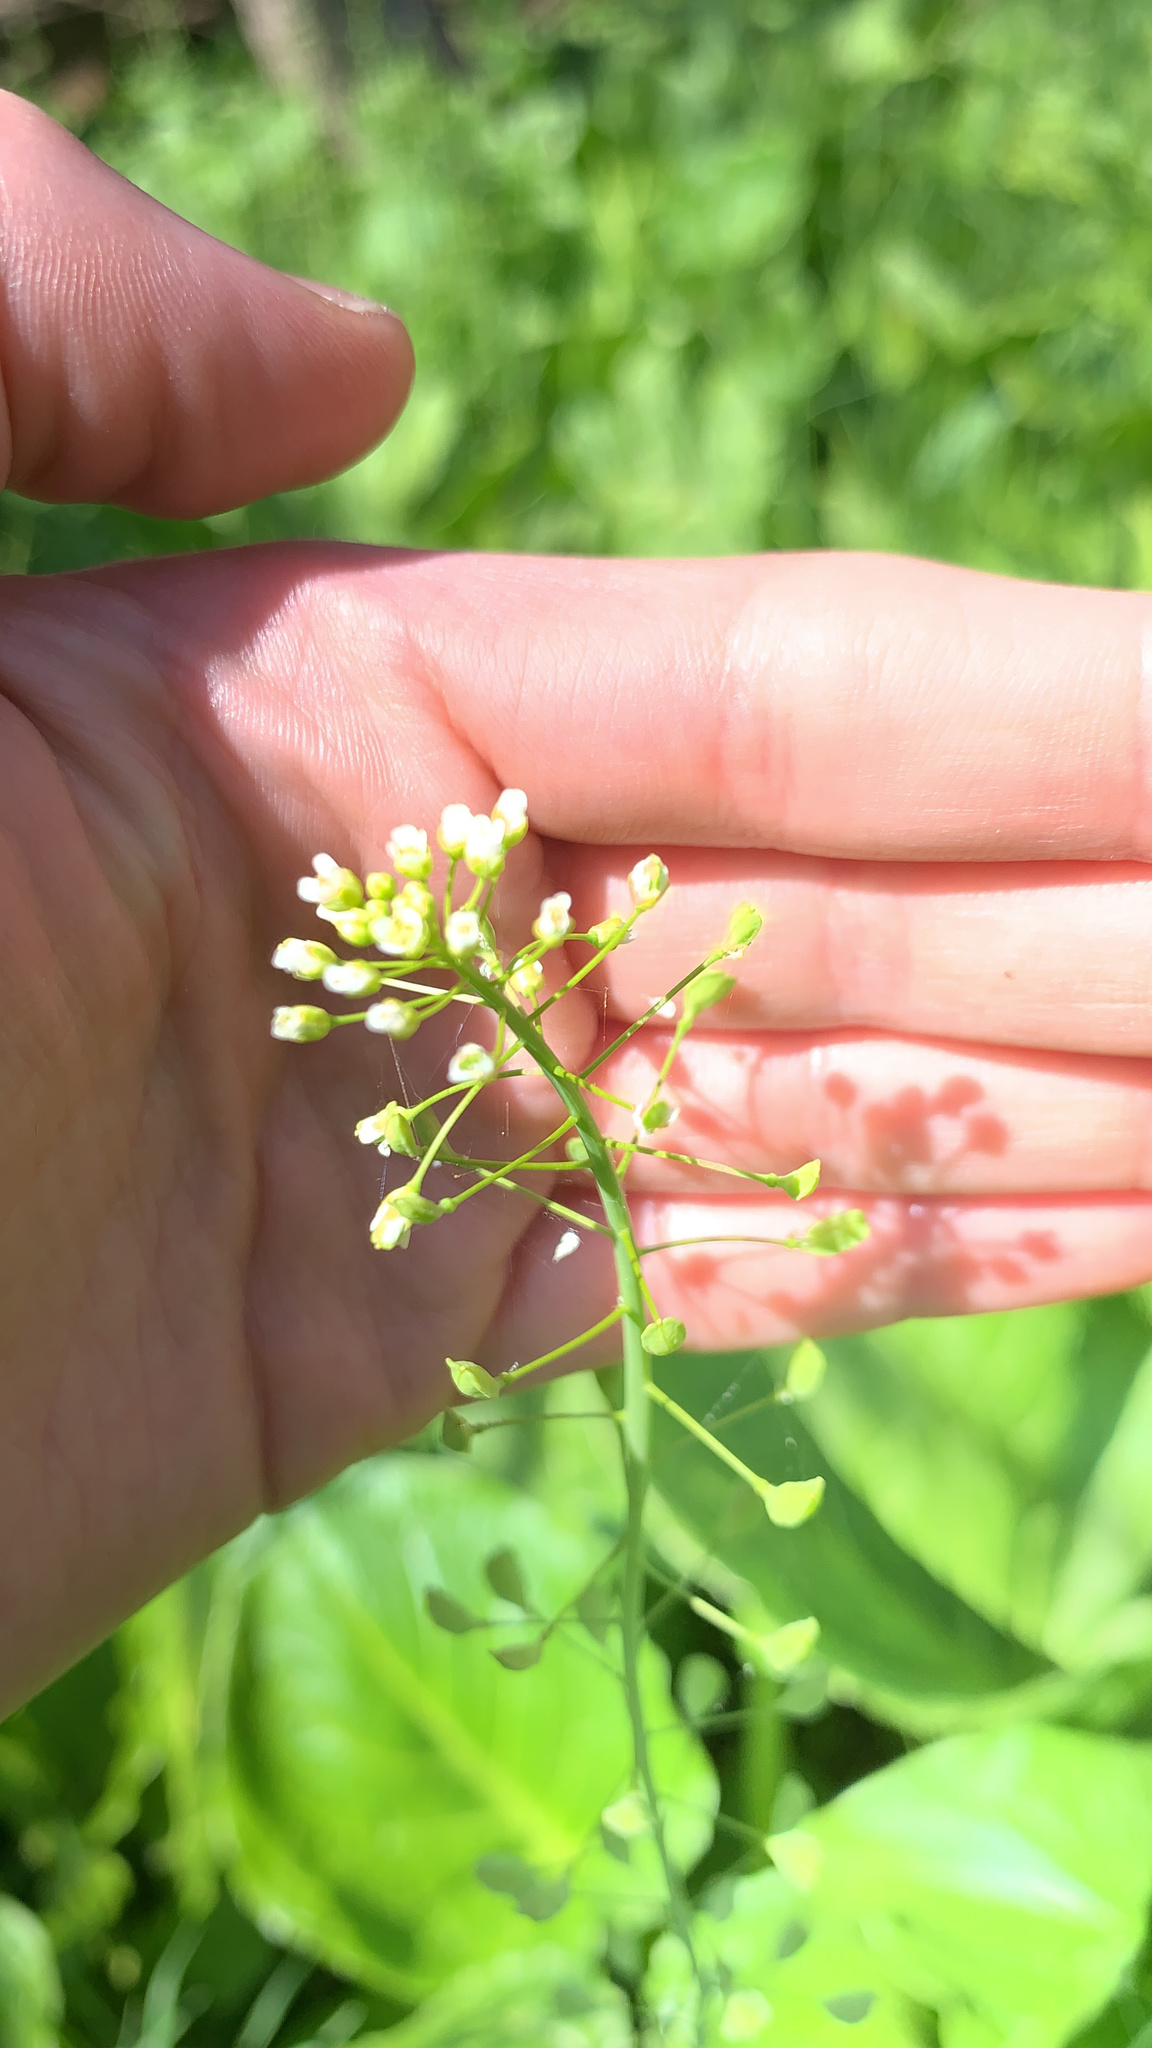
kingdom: Plantae
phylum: Tracheophyta
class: Magnoliopsida
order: Brassicales
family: Brassicaceae
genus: Mummenhoffia
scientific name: Mummenhoffia alliacea
